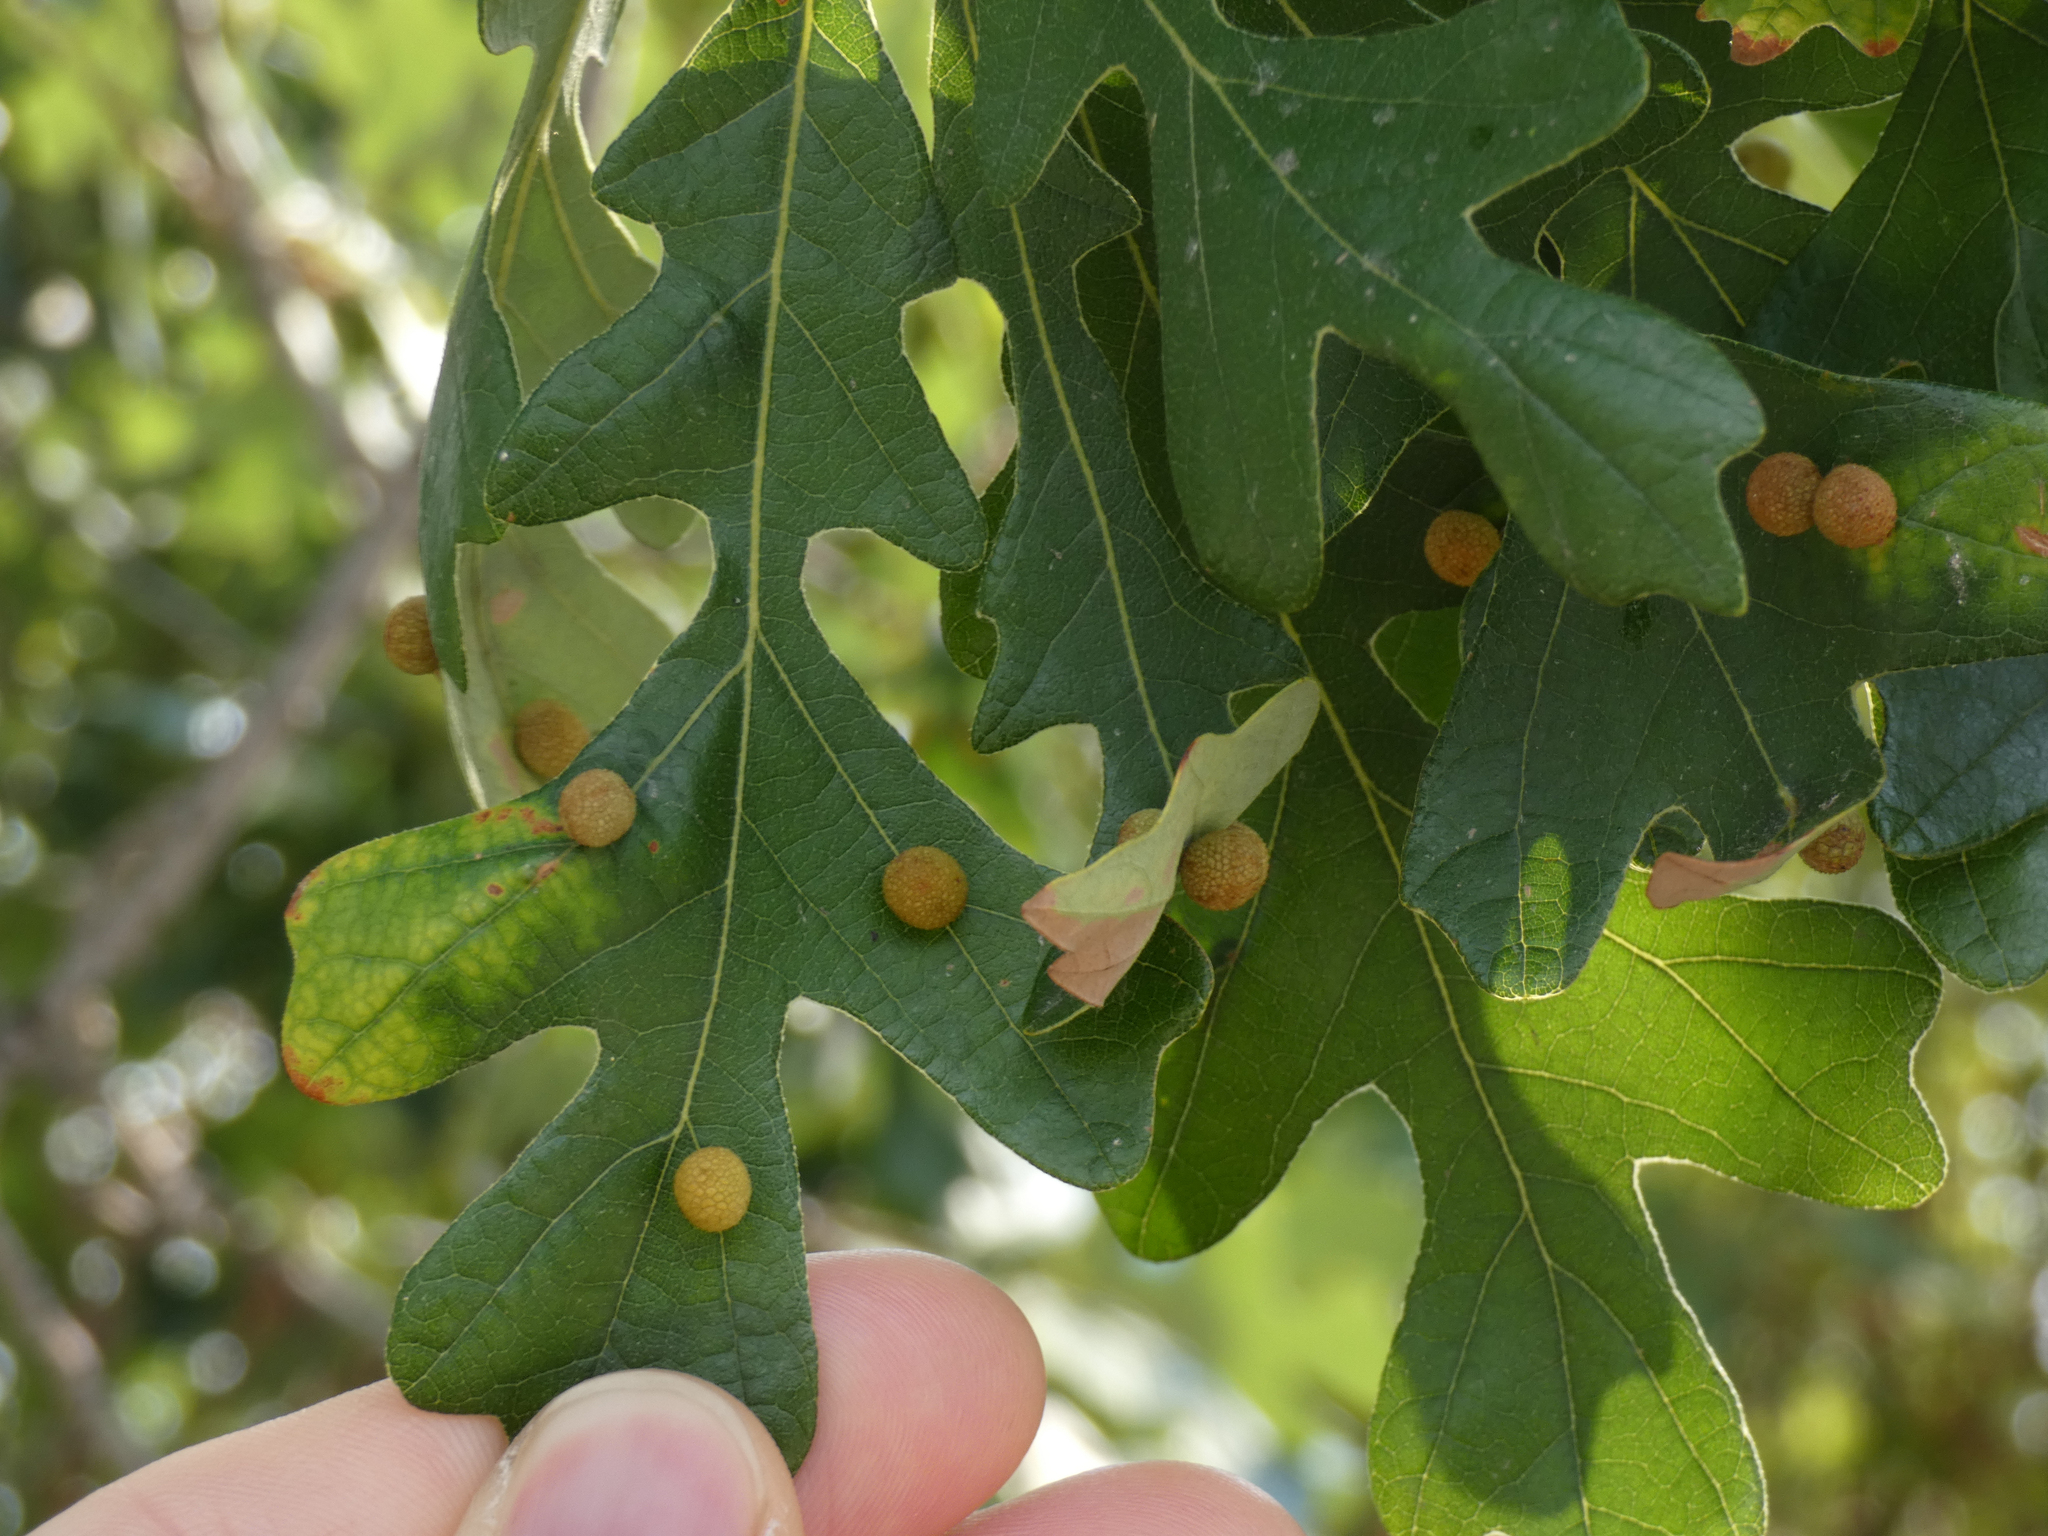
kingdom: Animalia
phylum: Arthropoda
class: Insecta
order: Hymenoptera
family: Cynipidae
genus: Acraspis
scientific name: Acraspis quercushirta
